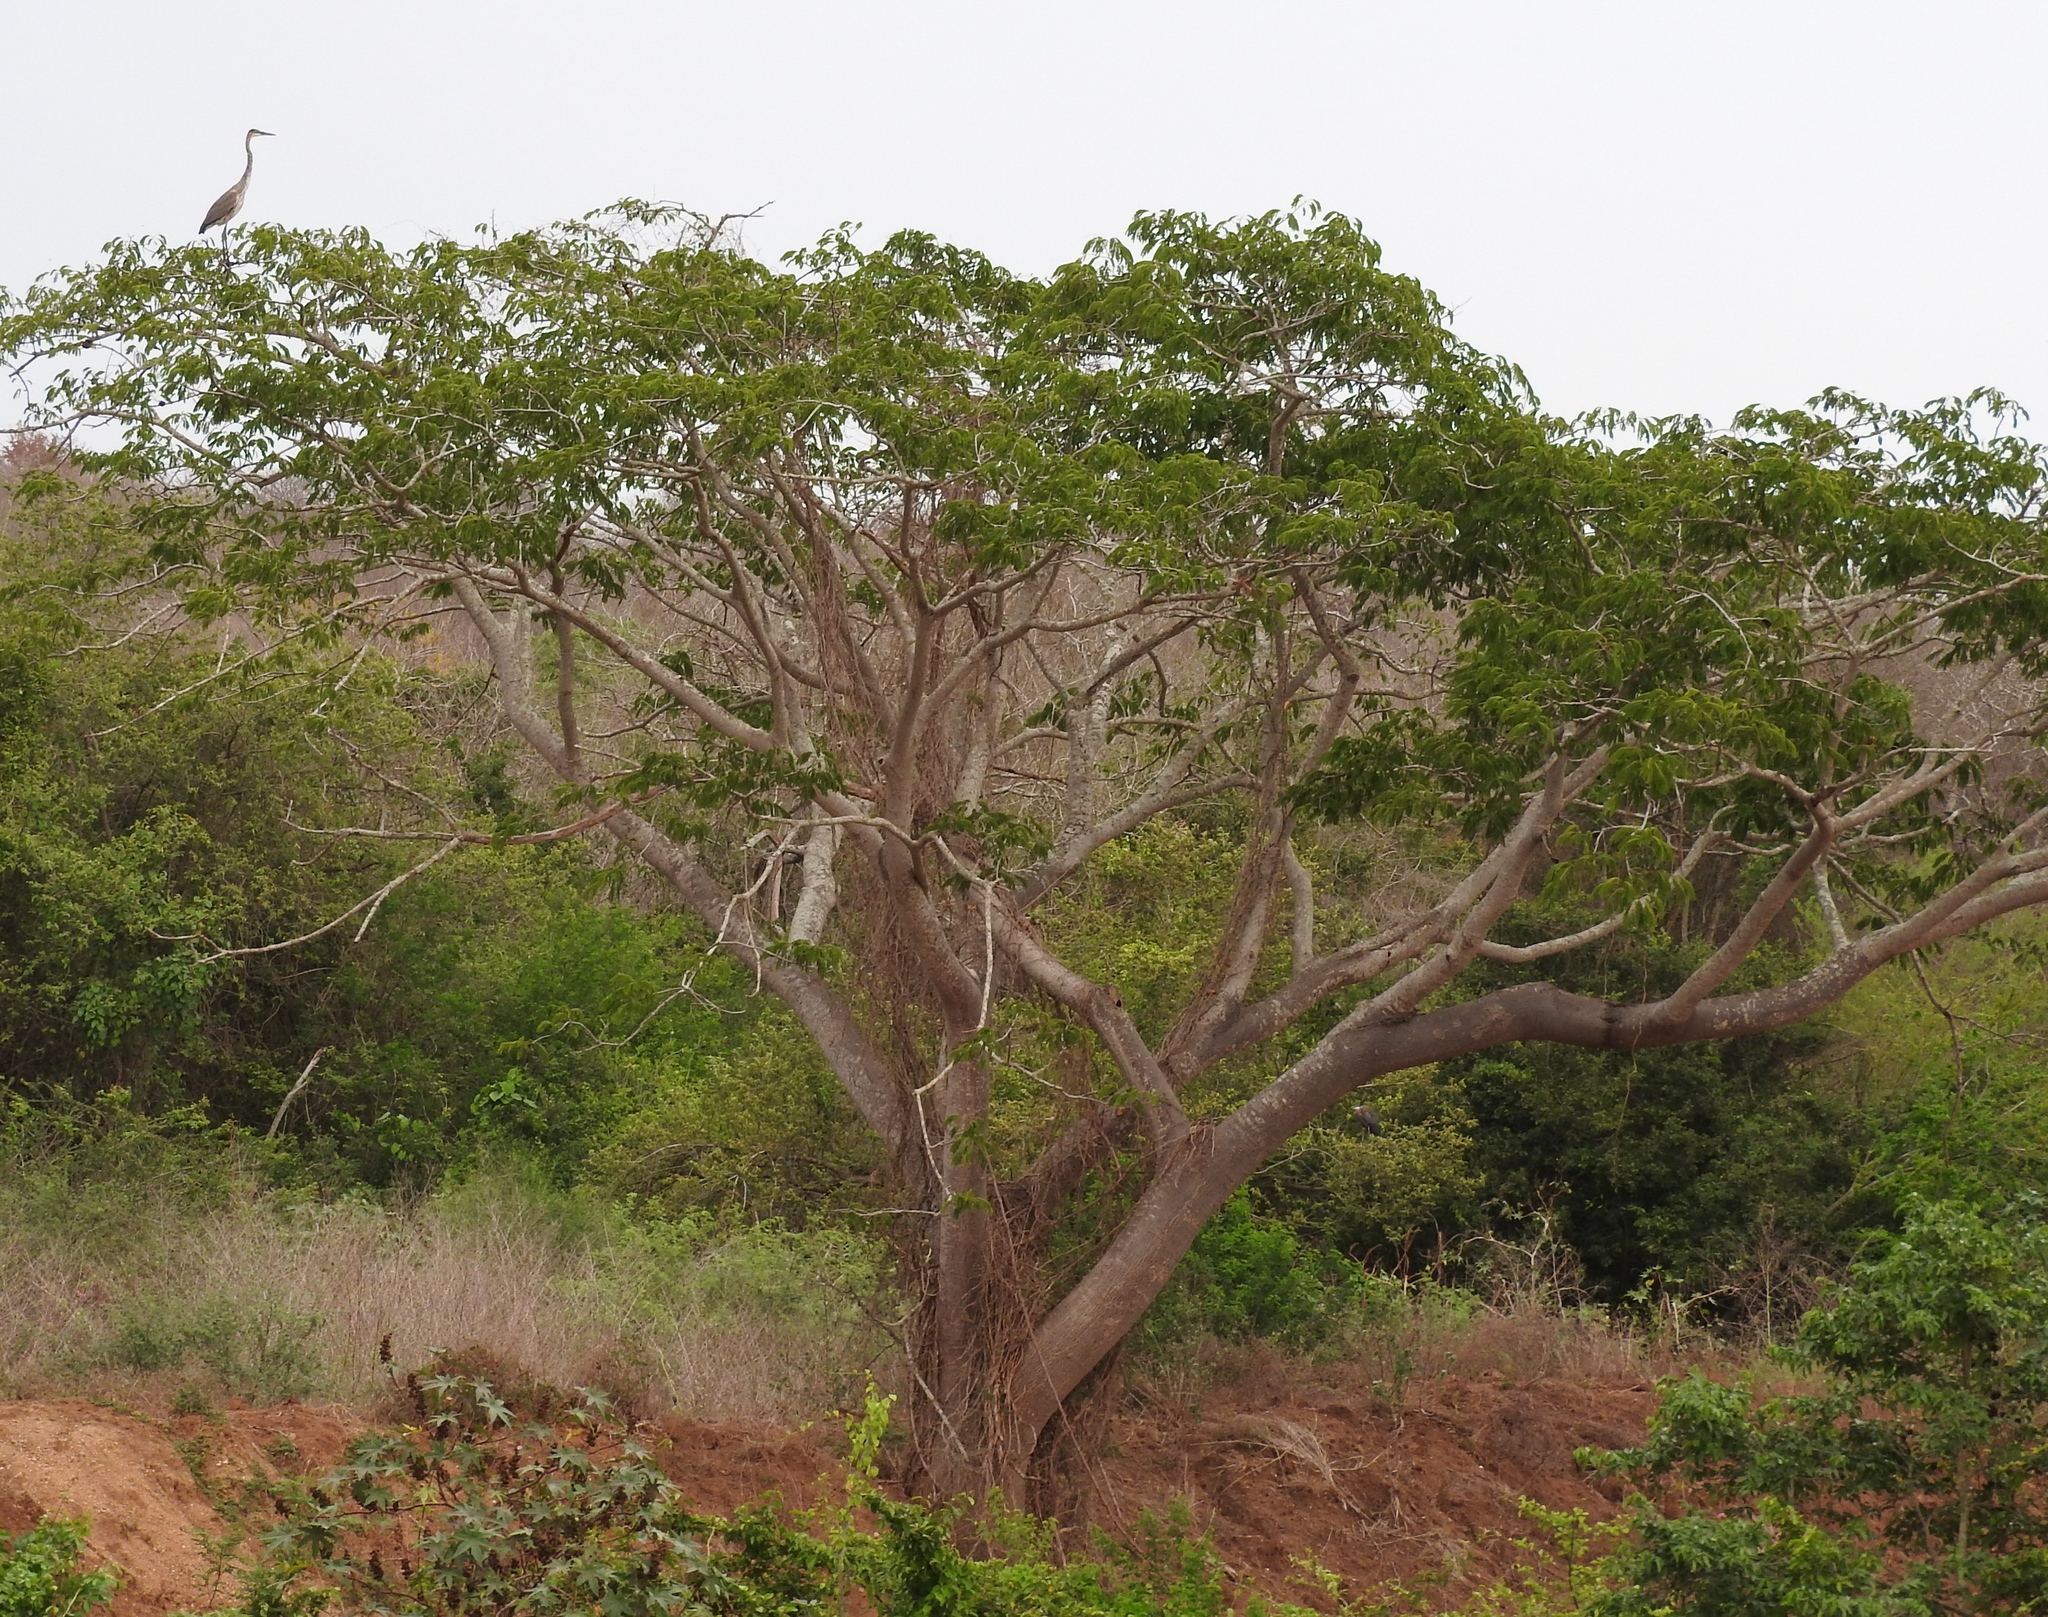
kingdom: Animalia
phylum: Chordata
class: Aves
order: Pelecaniformes
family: Ardeidae
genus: Ardea
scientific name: Ardea herodias
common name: Great blue heron
